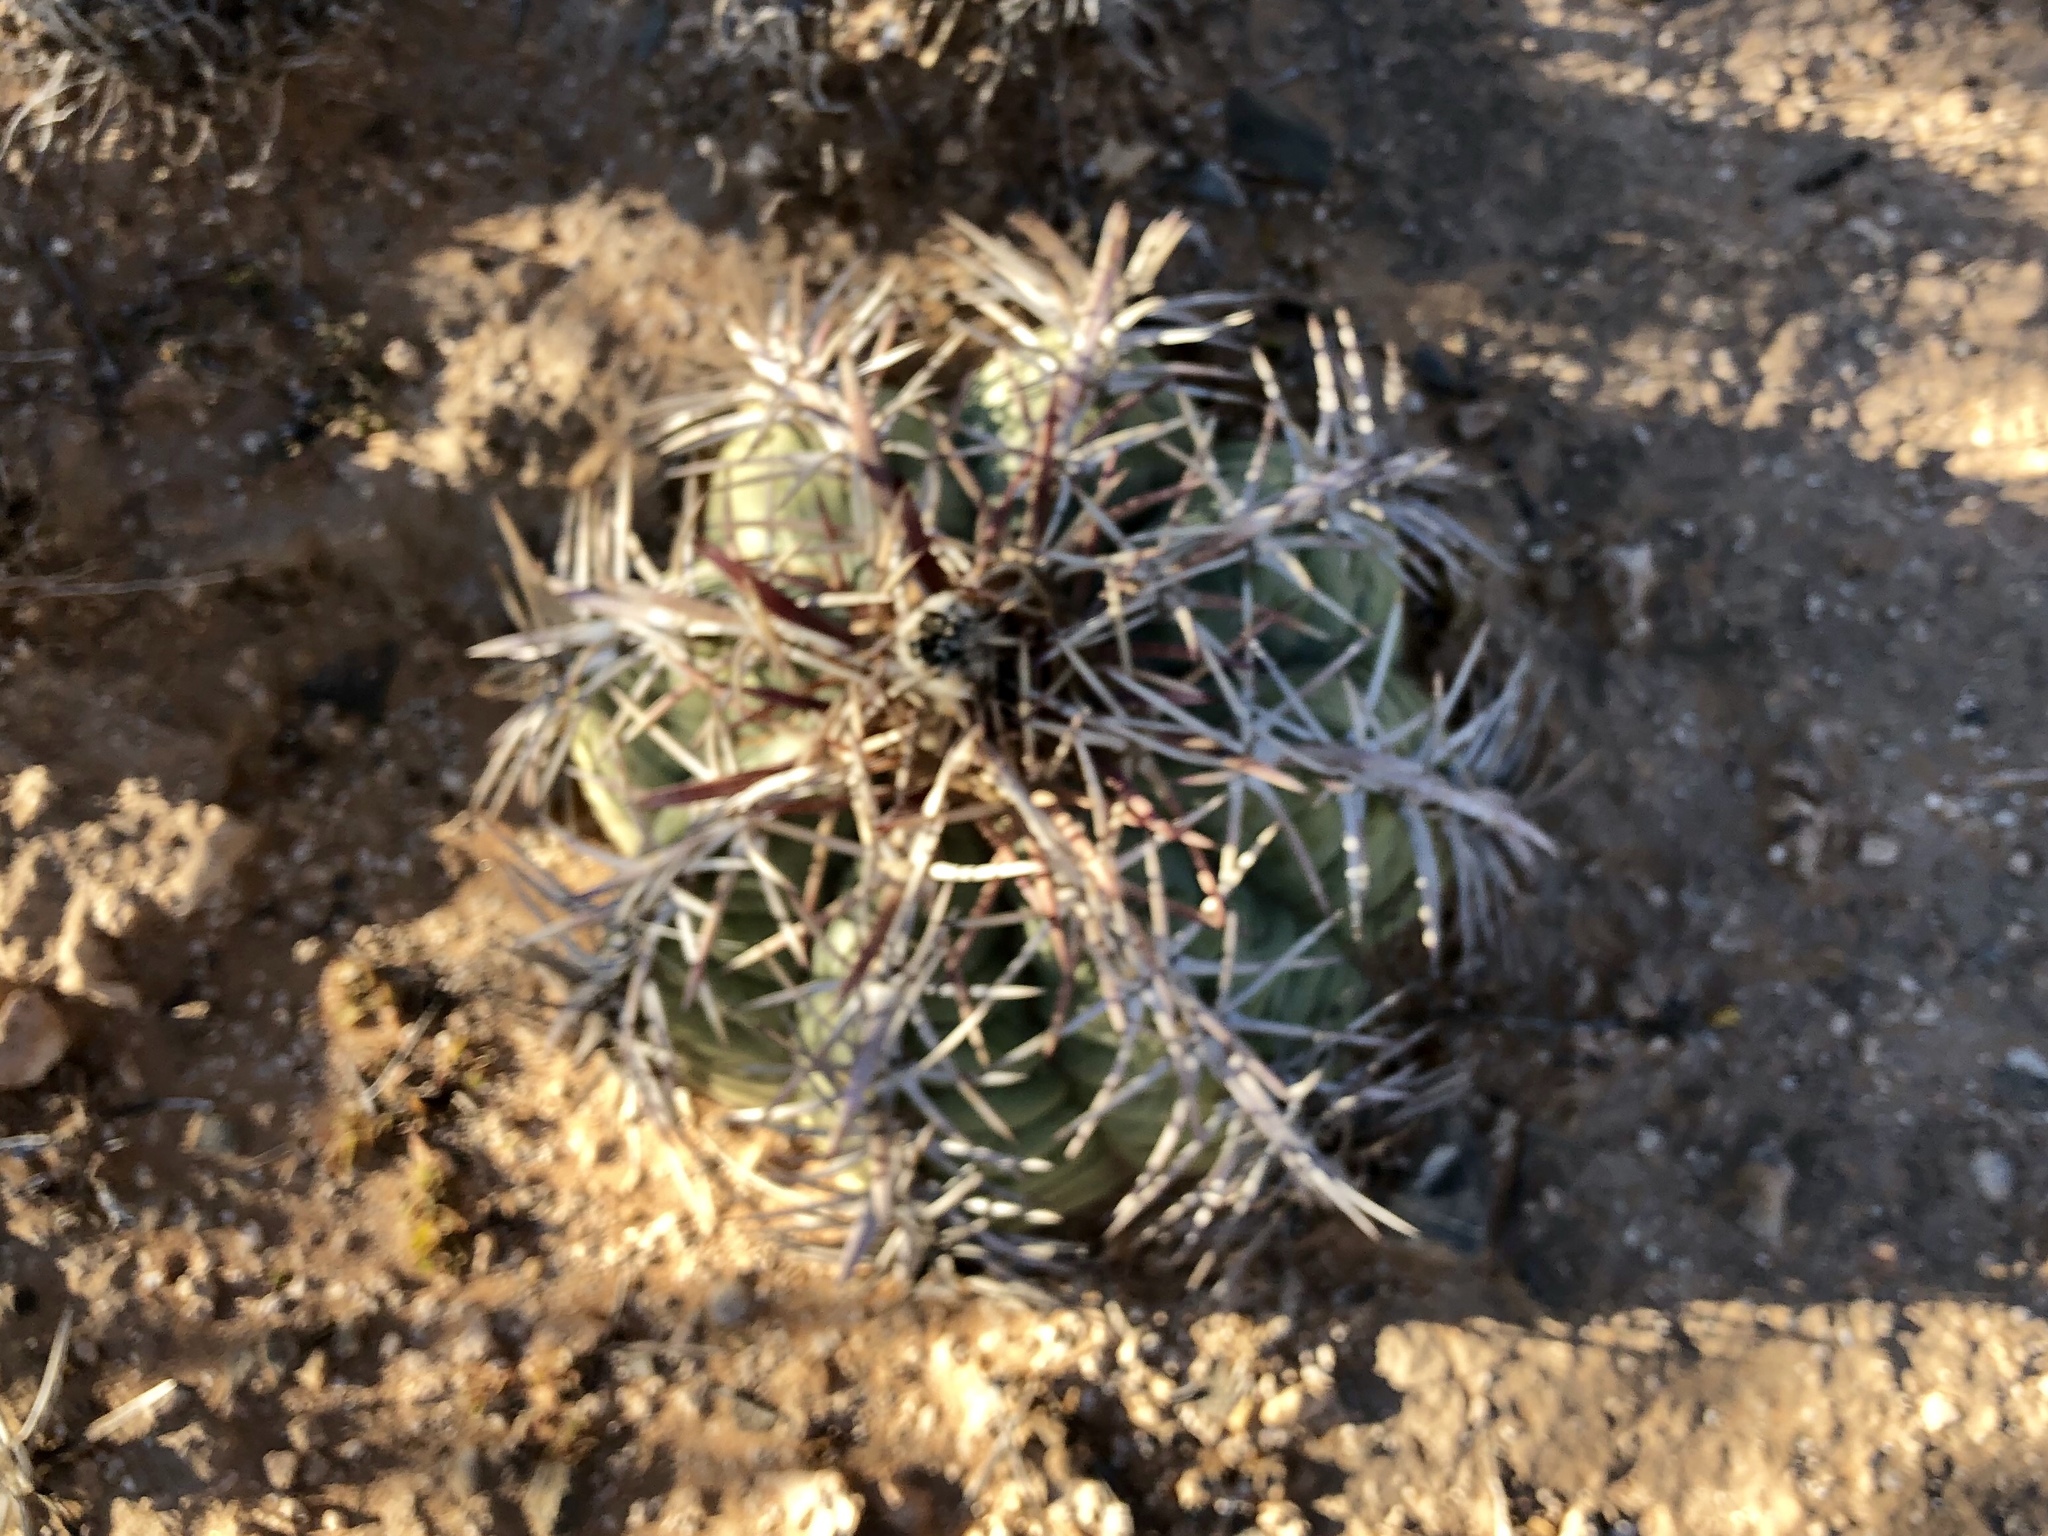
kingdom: Plantae
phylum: Tracheophyta
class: Magnoliopsida
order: Caryophyllales
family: Cactaceae
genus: Echinocactus
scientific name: Echinocactus horizonthalonius
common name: Devilshead
